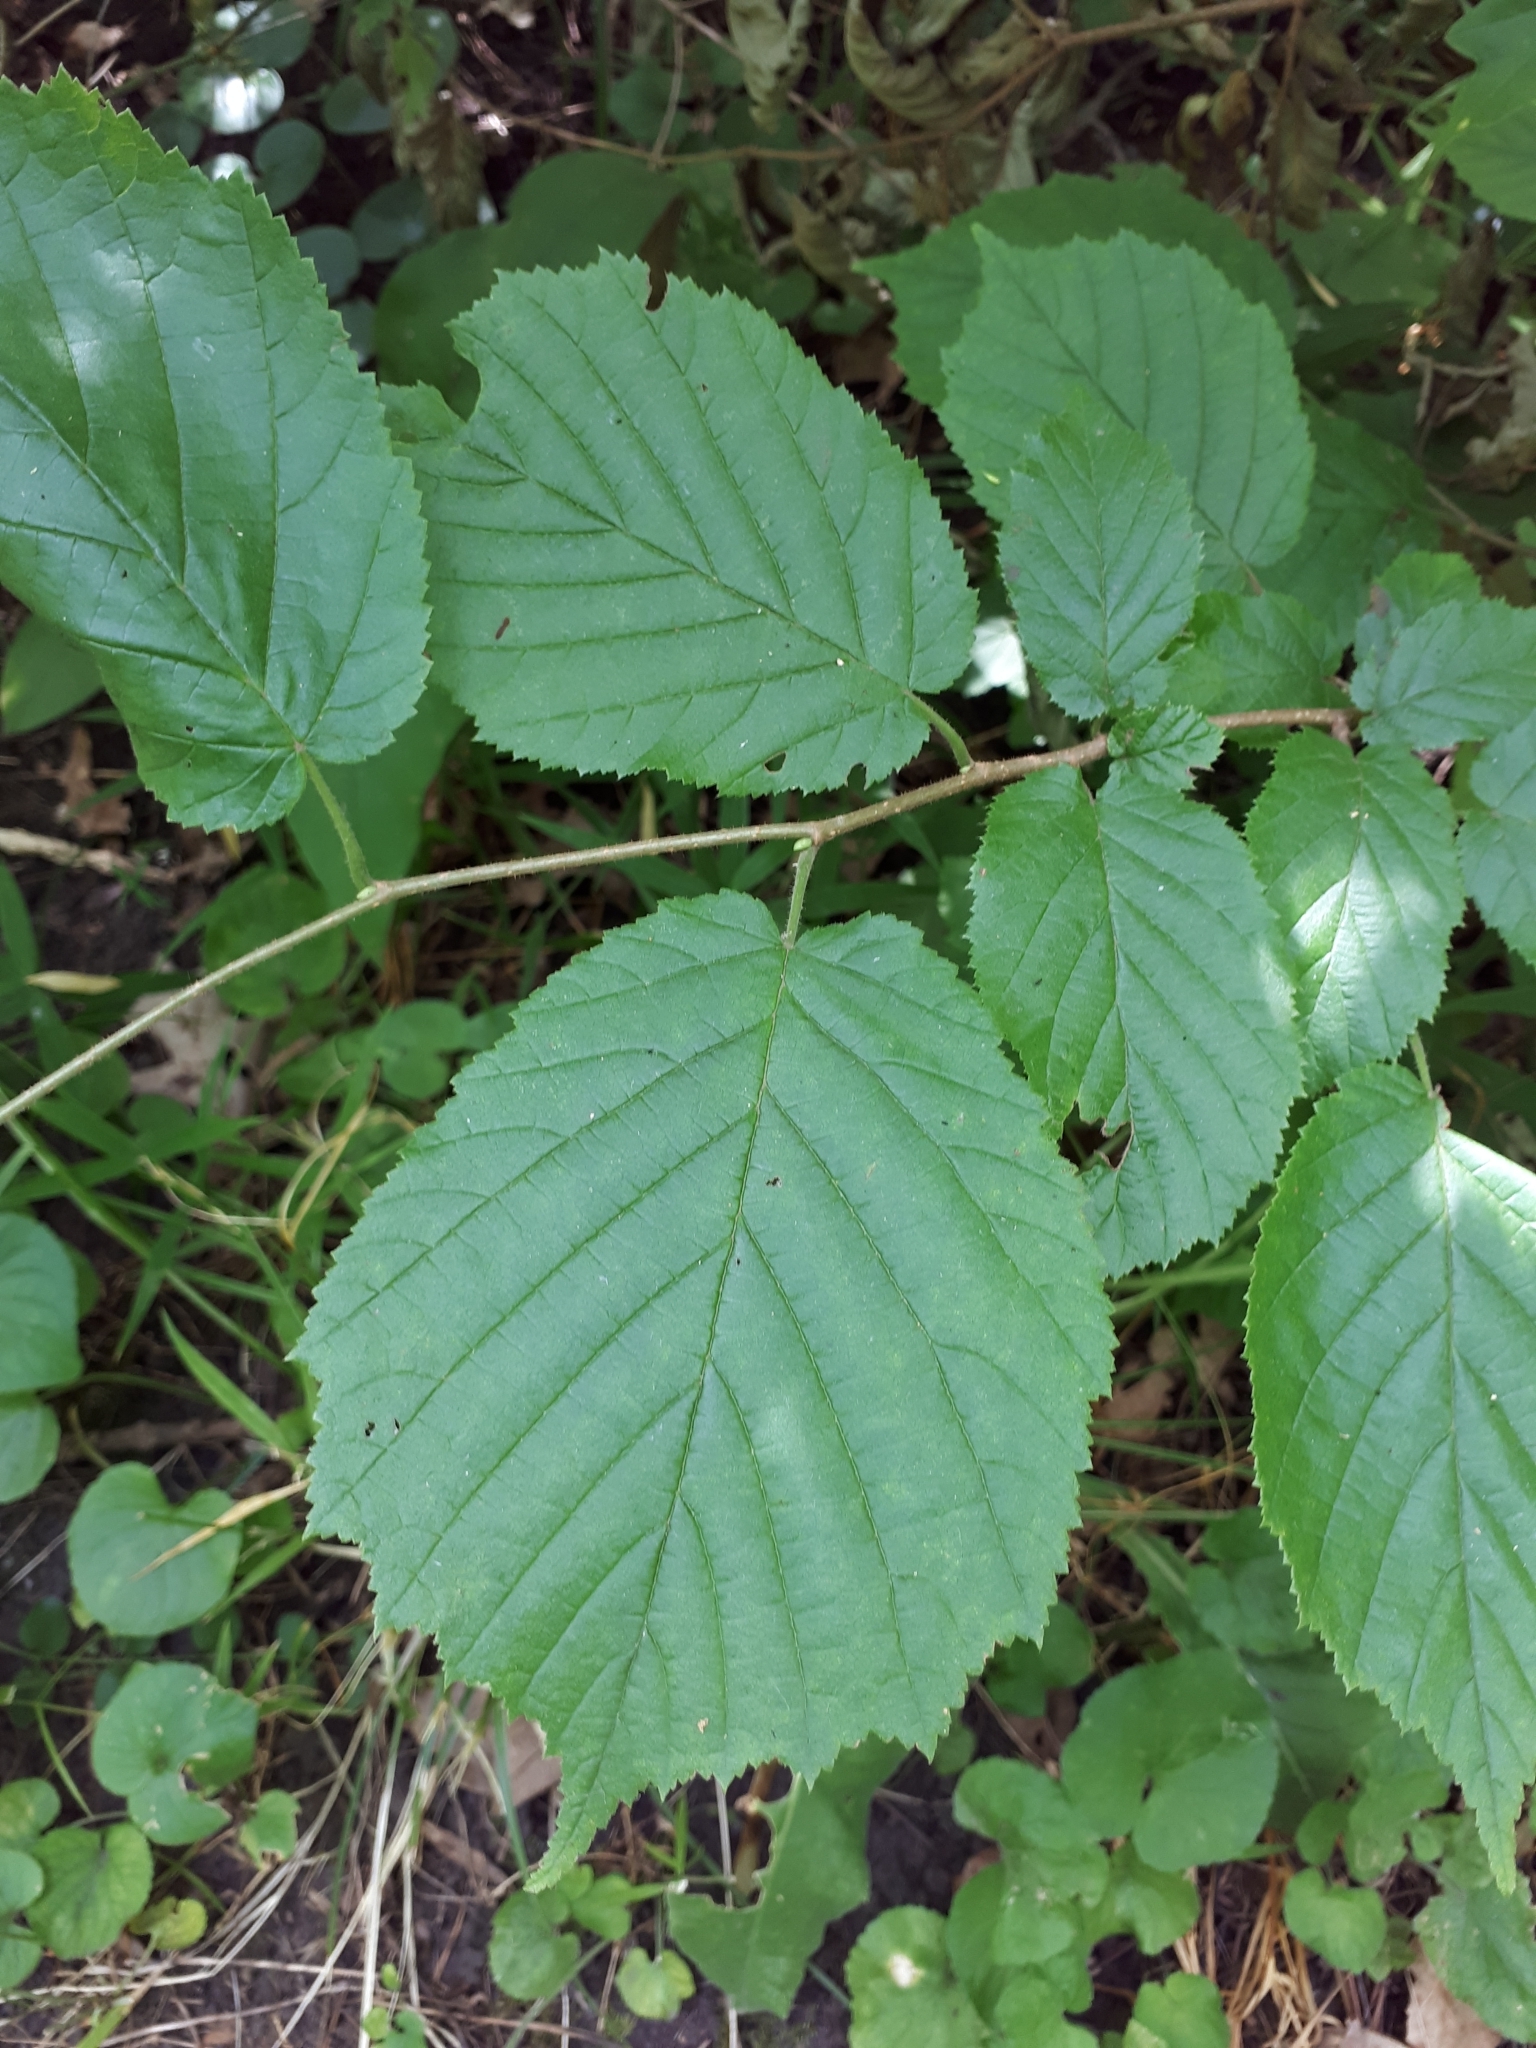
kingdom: Plantae
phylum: Tracheophyta
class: Magnoliopsida
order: Fagales
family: Betulaceae
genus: Corylus
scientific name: Corylus avellana
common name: European hazel
